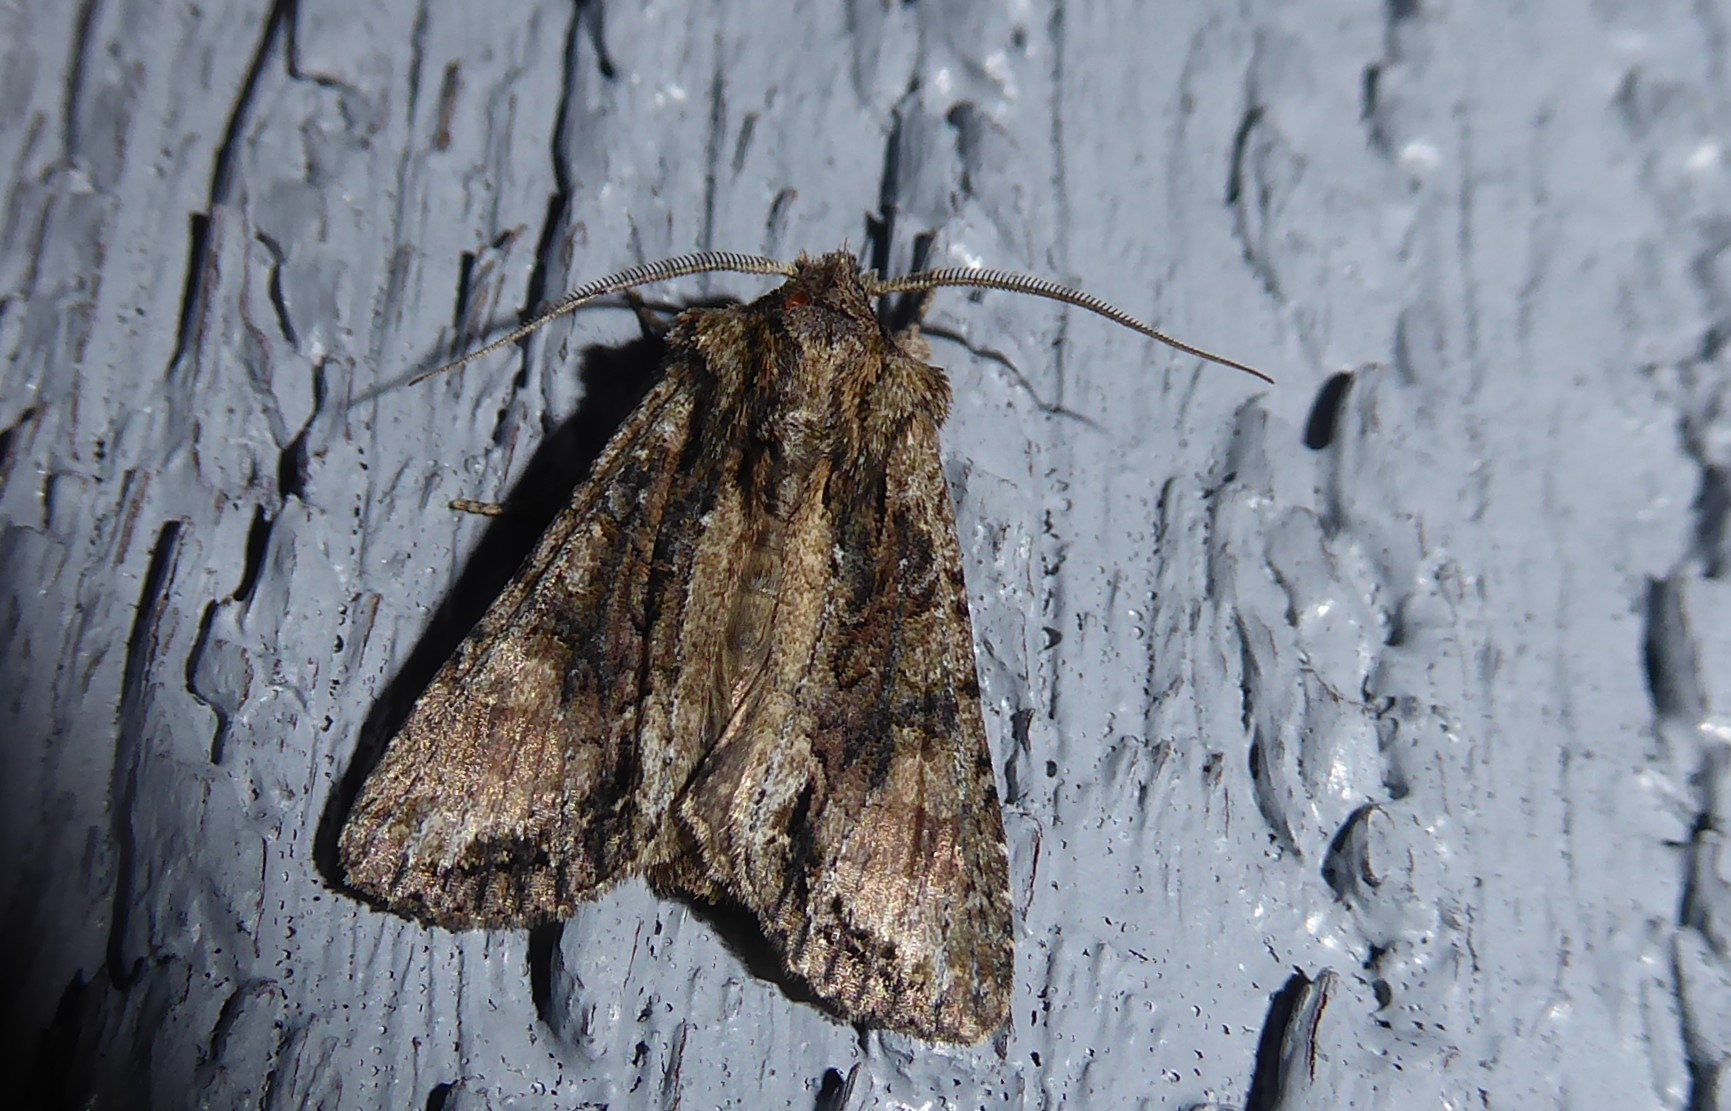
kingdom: Animalia
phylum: Arthropoda
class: Insecta
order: Lepidoptera
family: Noctuidae
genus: Ichneutica
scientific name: Ichneutica mutans
